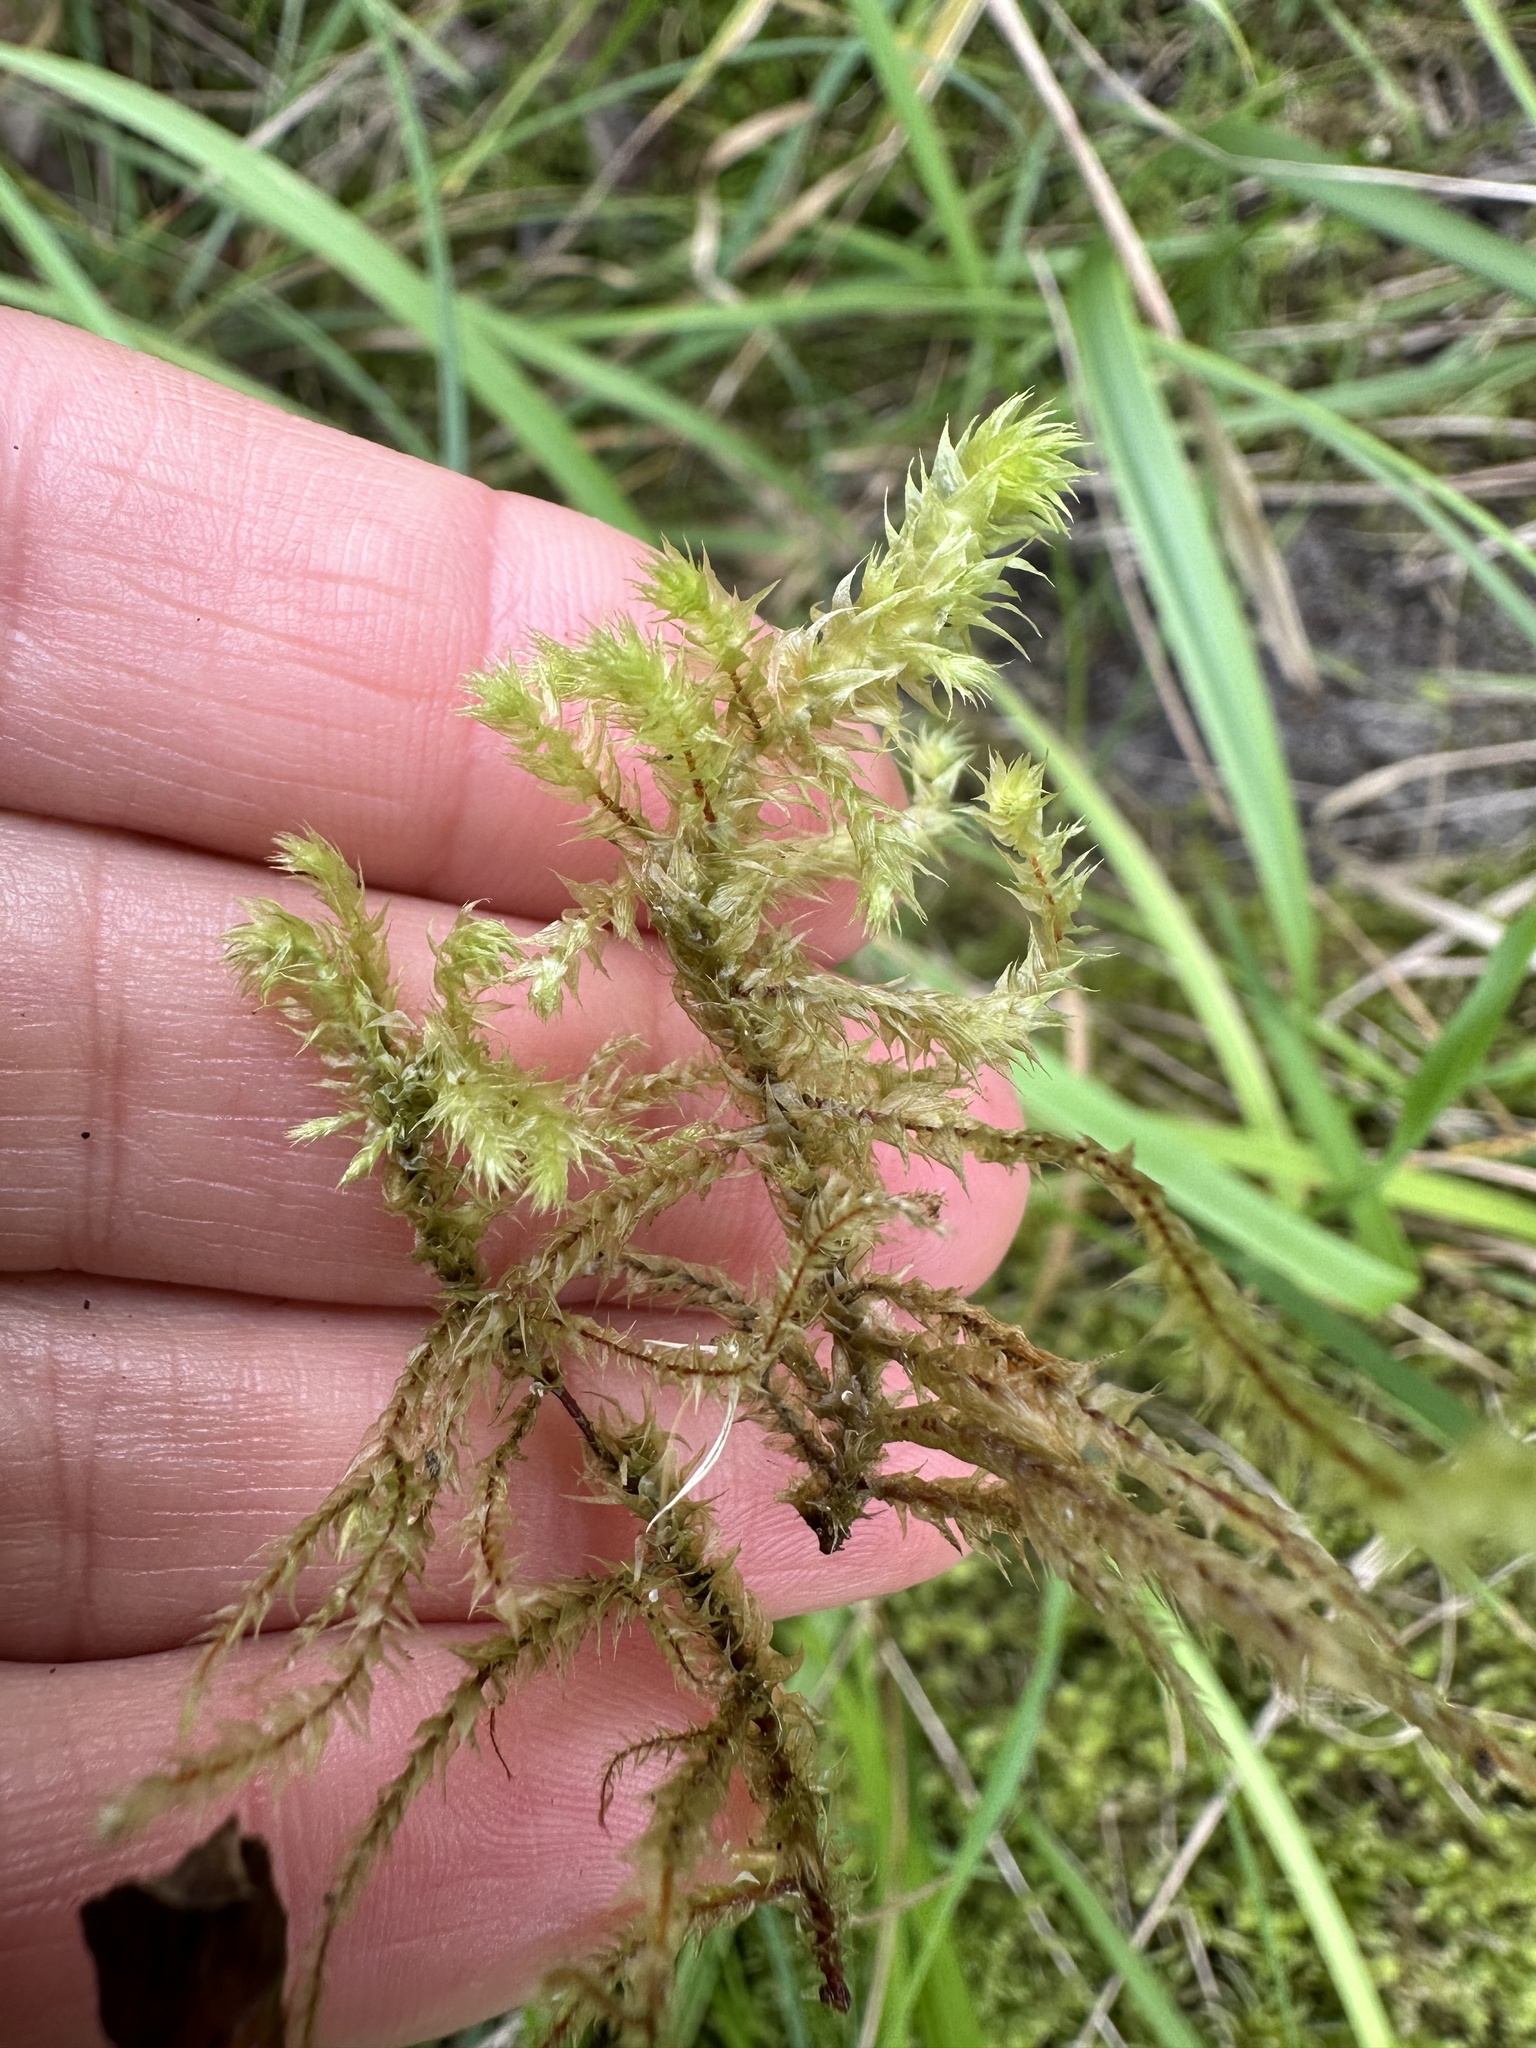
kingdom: Plantae
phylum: Bryophyta
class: Bryopsida
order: Hypnales
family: Hylocomiaceae
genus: Hylocomiadelphus
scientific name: Hylocomiadelphus triquetrus
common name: Rough goose neck moss
